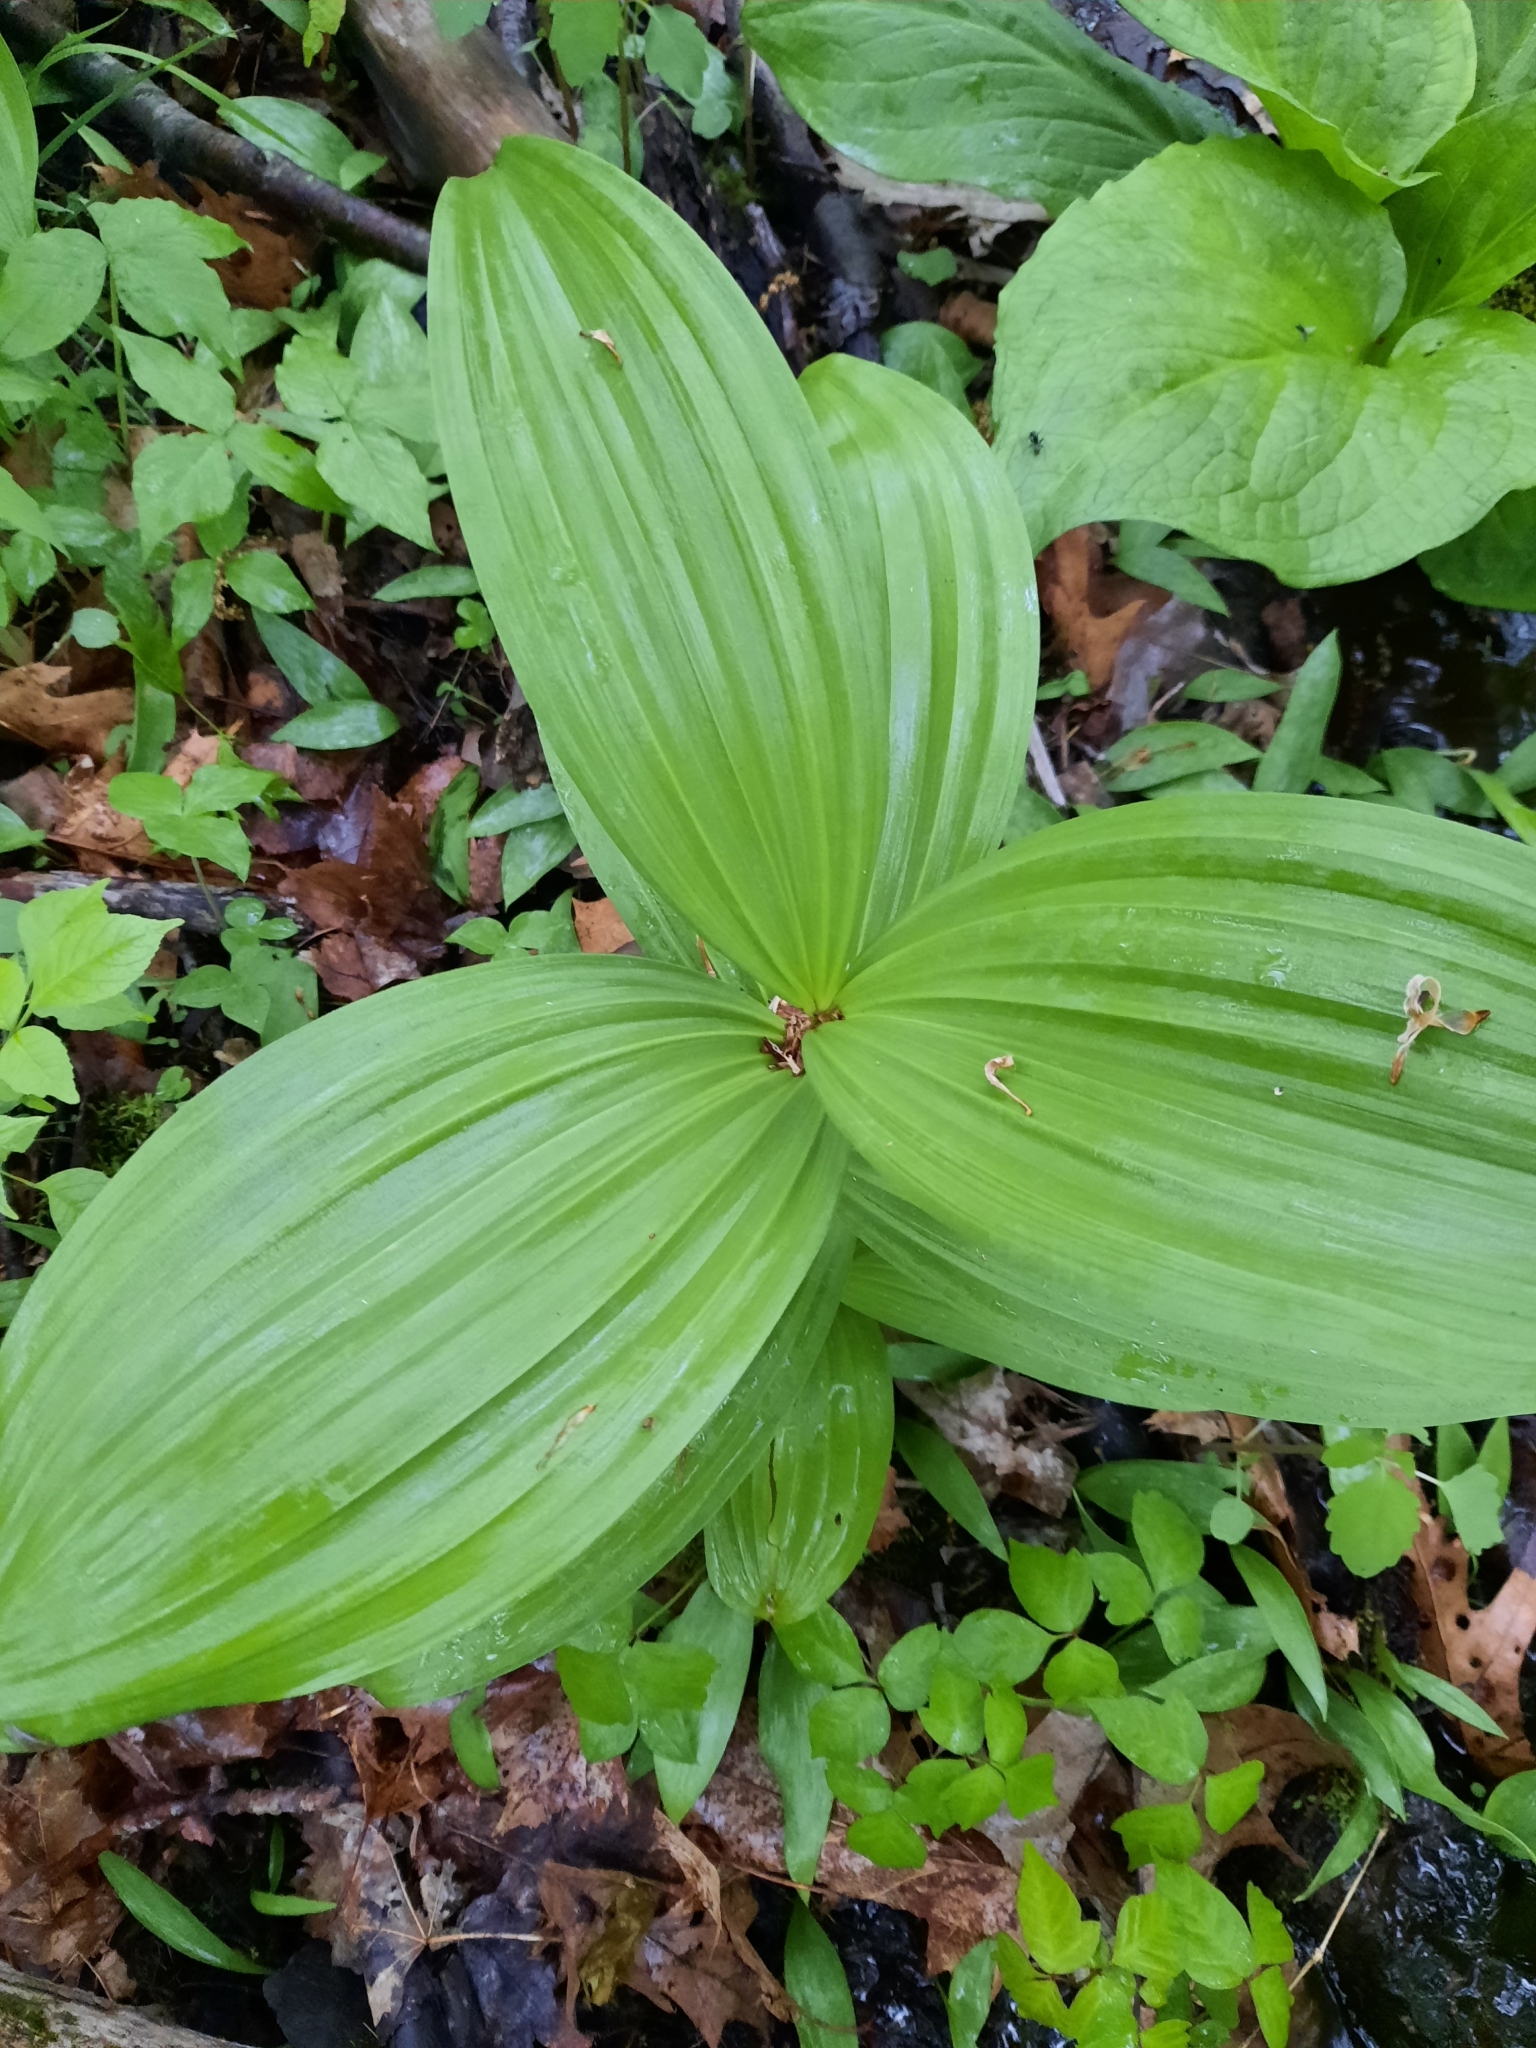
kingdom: Plantae
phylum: Tracheophyta
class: Liliopsida
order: Liliales
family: Melanthiaceae
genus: Veratrum
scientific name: Veratrum viride
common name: American false hellebore
